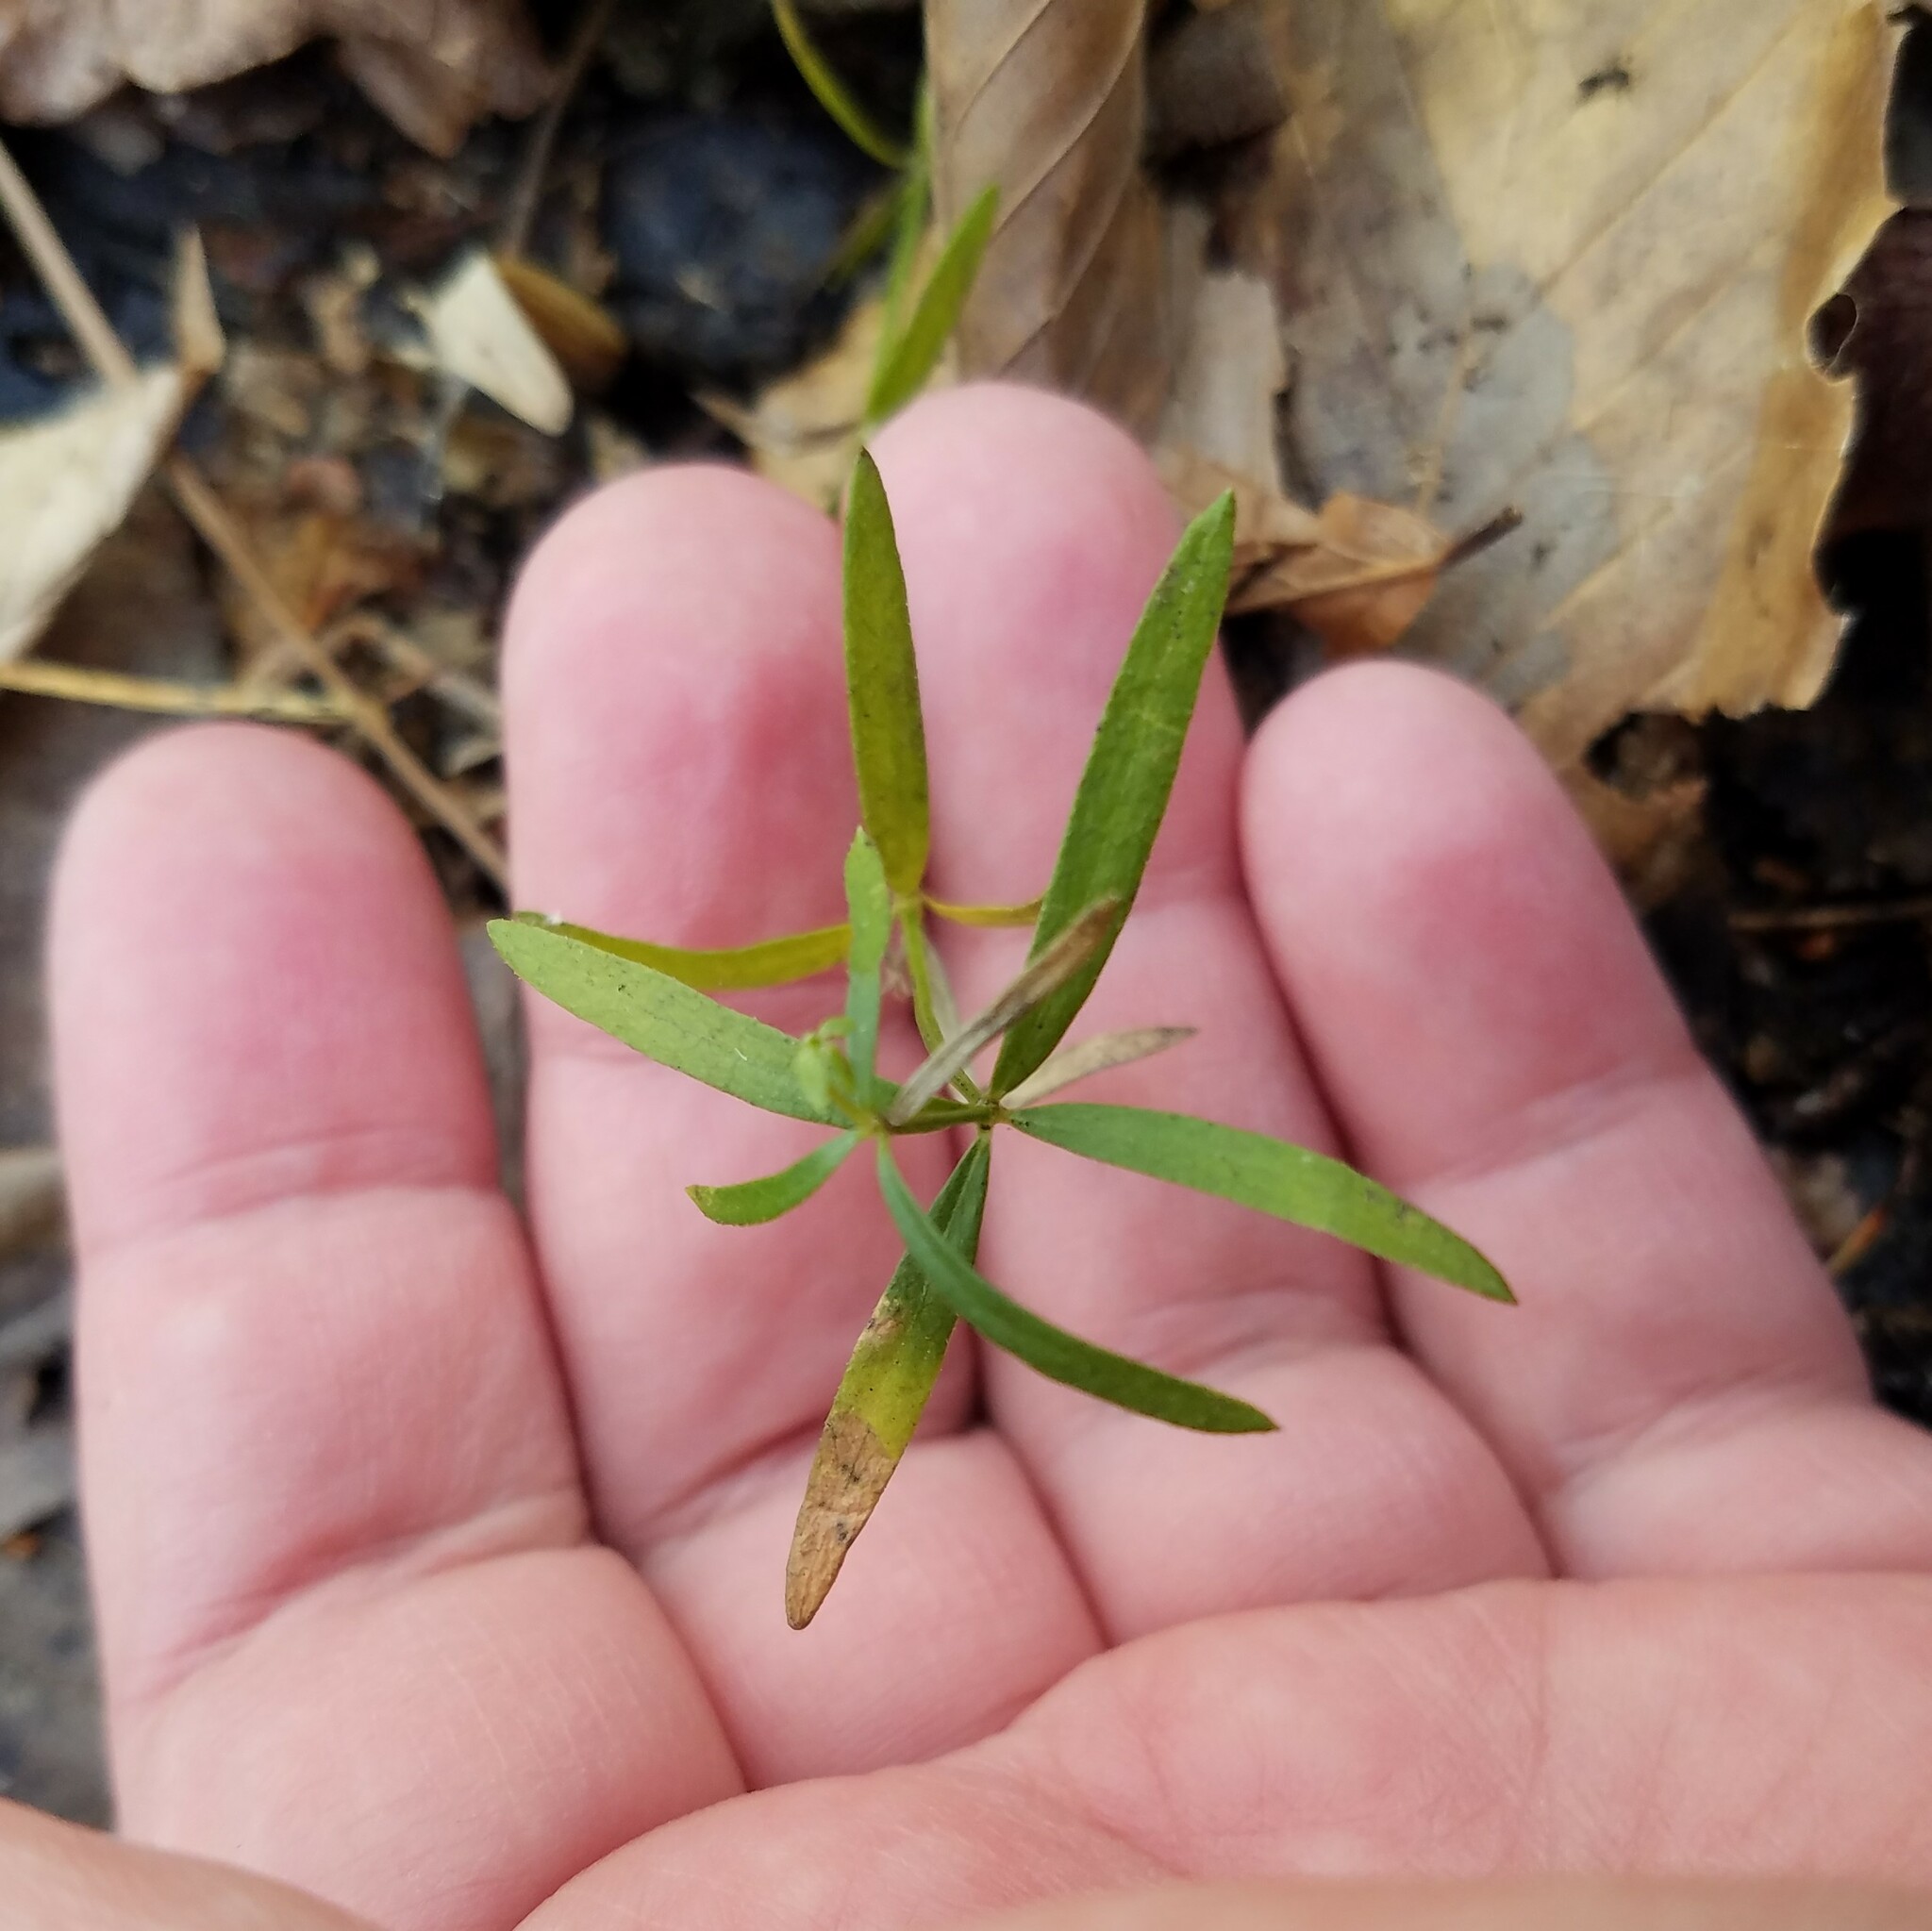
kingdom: Plantae
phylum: Tracheophyta
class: Magnoliopsida
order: Gentianales
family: Rubiaceae
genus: Galium
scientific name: Galium uniflorum
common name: One-flower bedstraw
